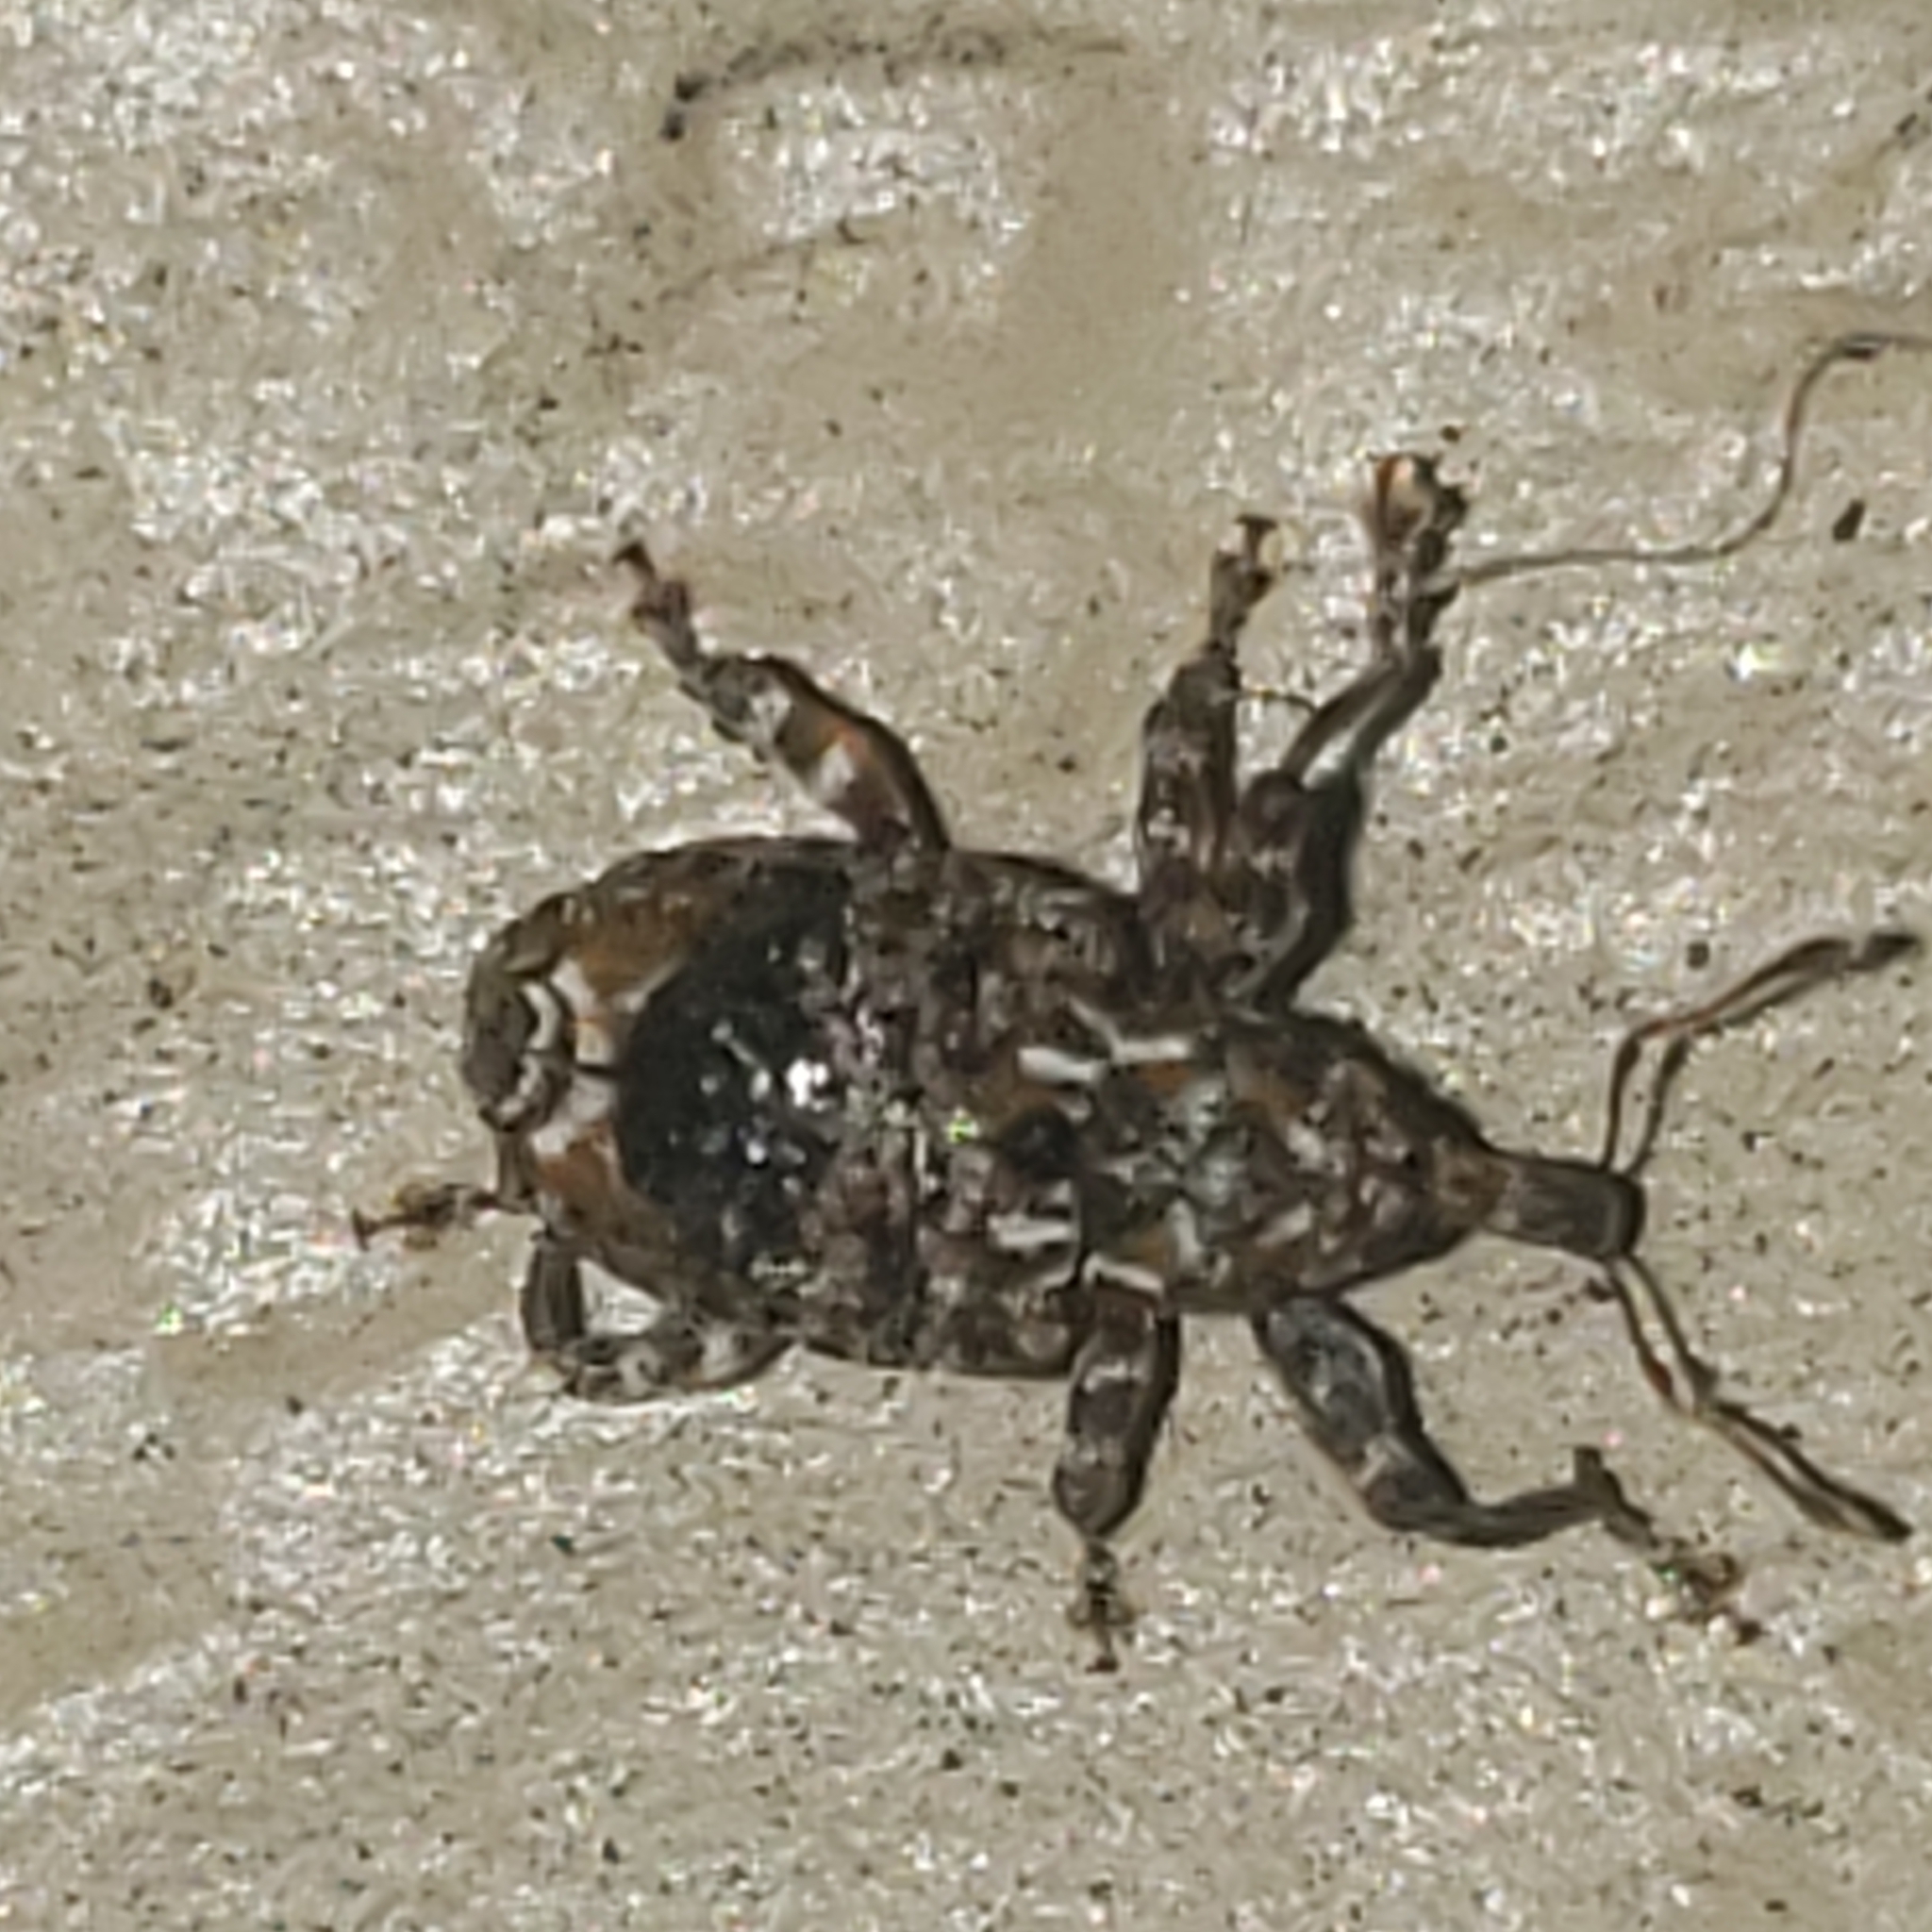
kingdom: Animalia
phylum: Arthropoda
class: Insecta
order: Coleoptera
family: Curculionidae
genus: Conotrachelus
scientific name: Conotrachelus nenuphar
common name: Plum curculio
